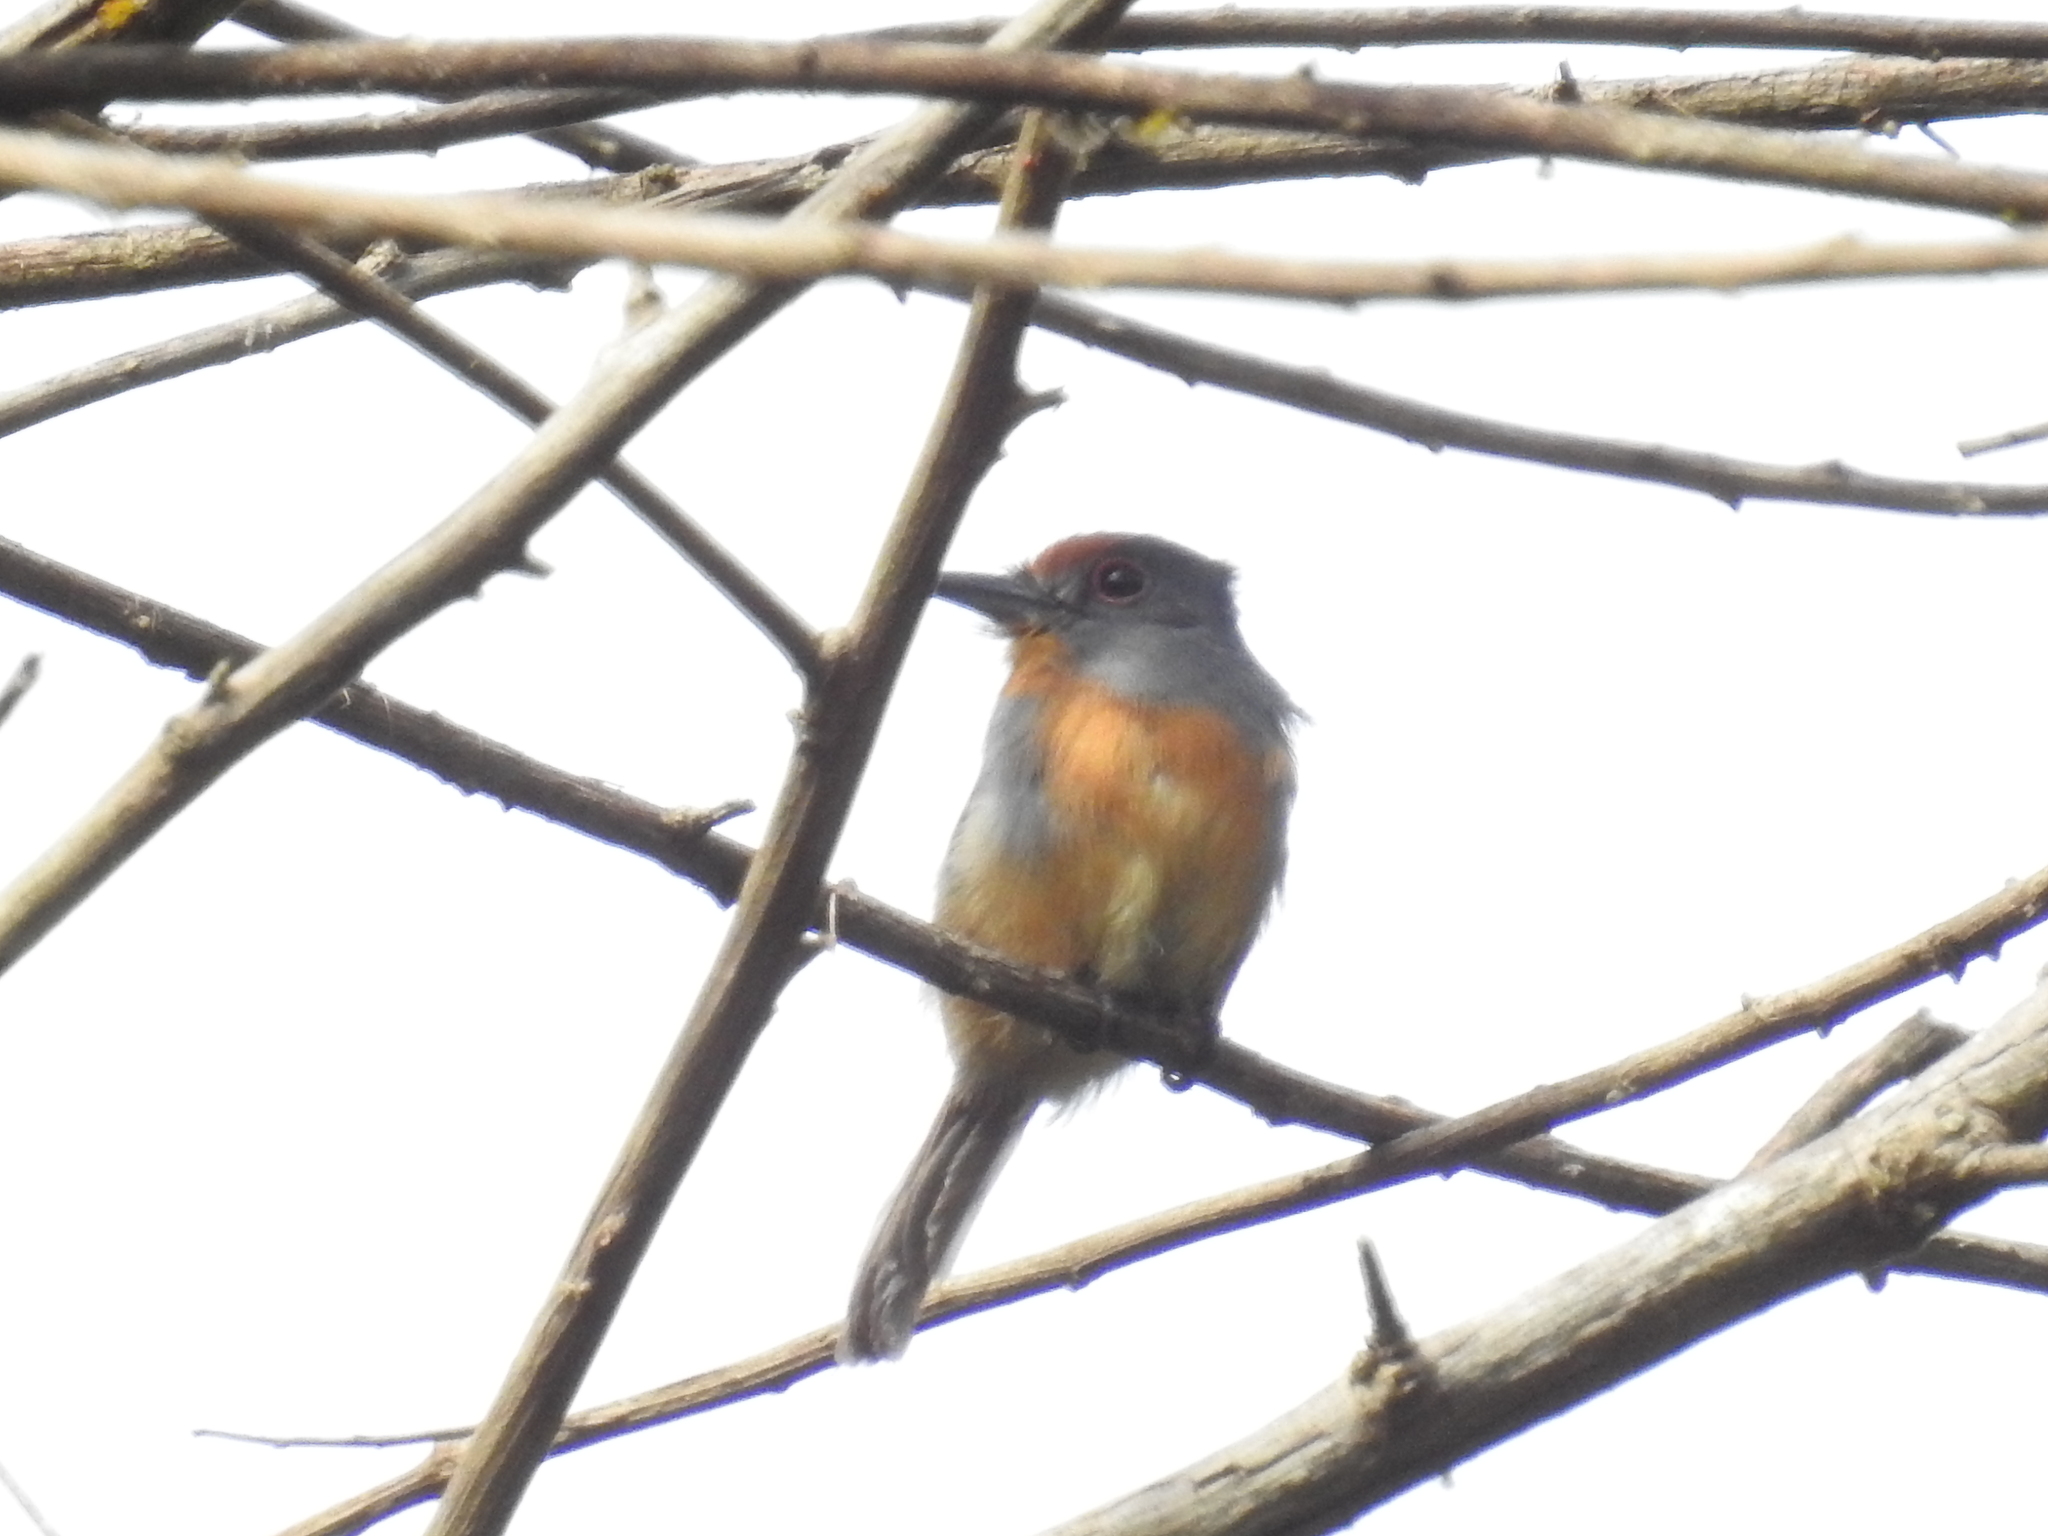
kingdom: Animalia
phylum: Chordata
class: Aves
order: Piciformes
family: Bucconidae
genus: Nonnula
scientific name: Nonnula ruficapilla
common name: Rufous-capped nunlet
